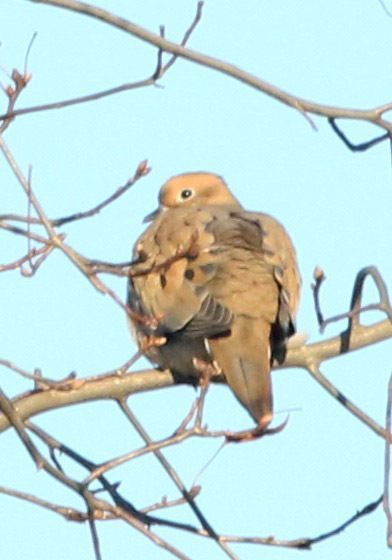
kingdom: Animalia
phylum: Chordata
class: Aves
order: Columbiformes
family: Columbidae
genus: Zenaida
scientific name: Zenaida macroura
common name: Mourning dove
